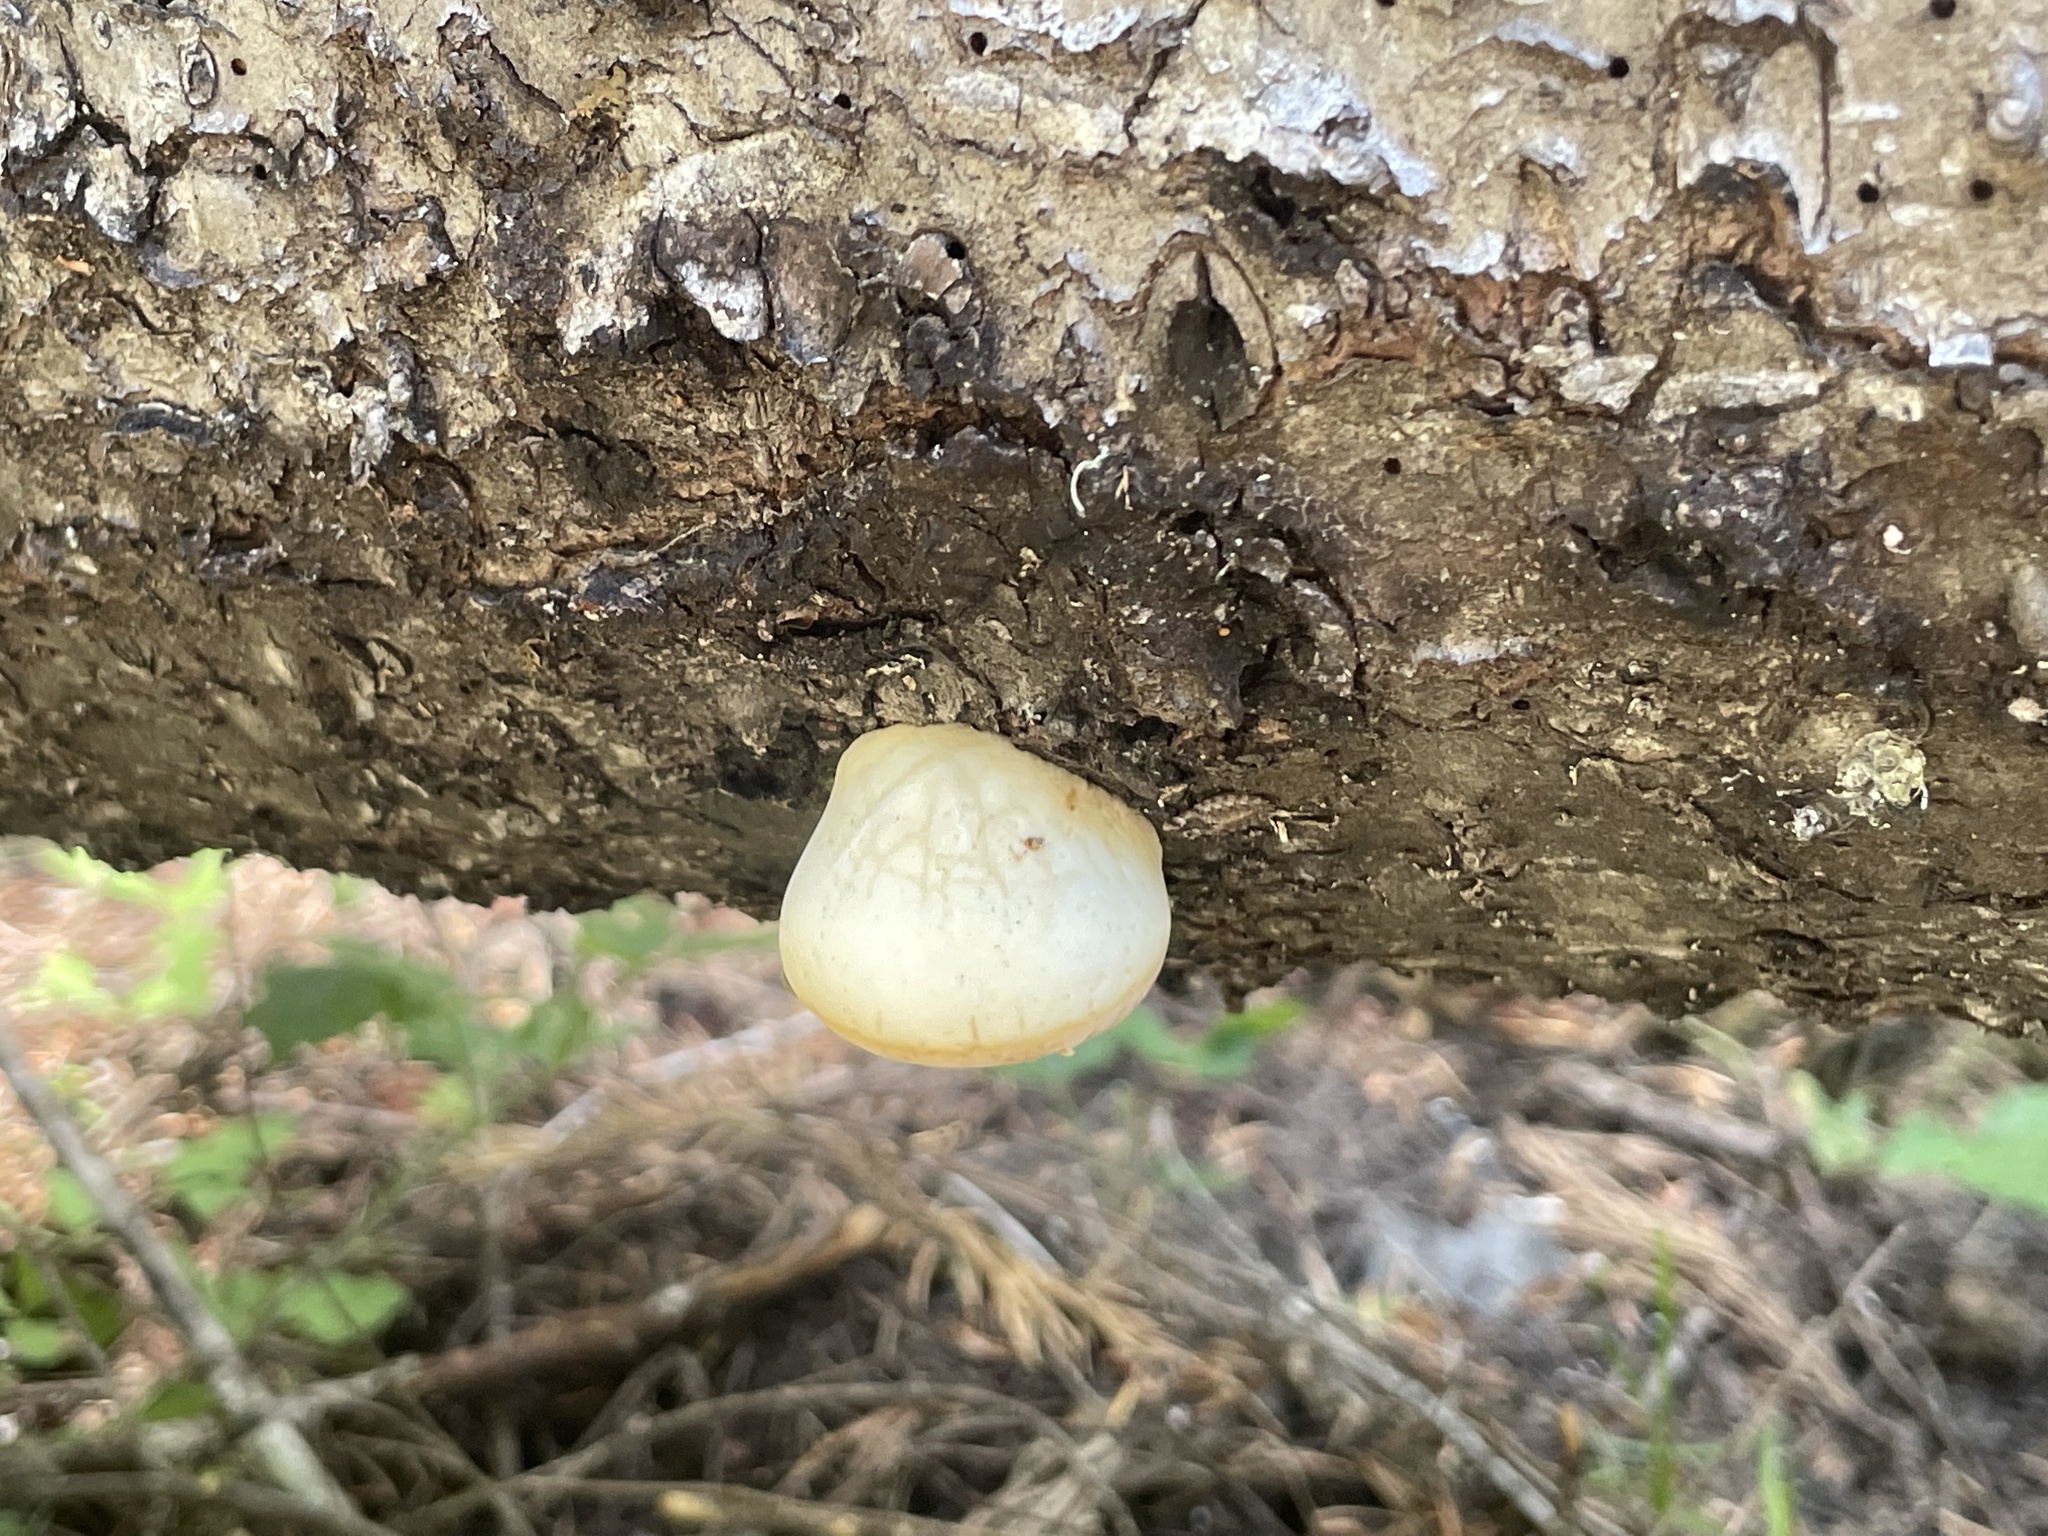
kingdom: Fungi
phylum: Basidiomycota
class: Agaricomycetes
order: Polyporales
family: Polyporaceae
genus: Cryptoporus
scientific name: Cryptoporus volvatus
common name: Veiled polypore
